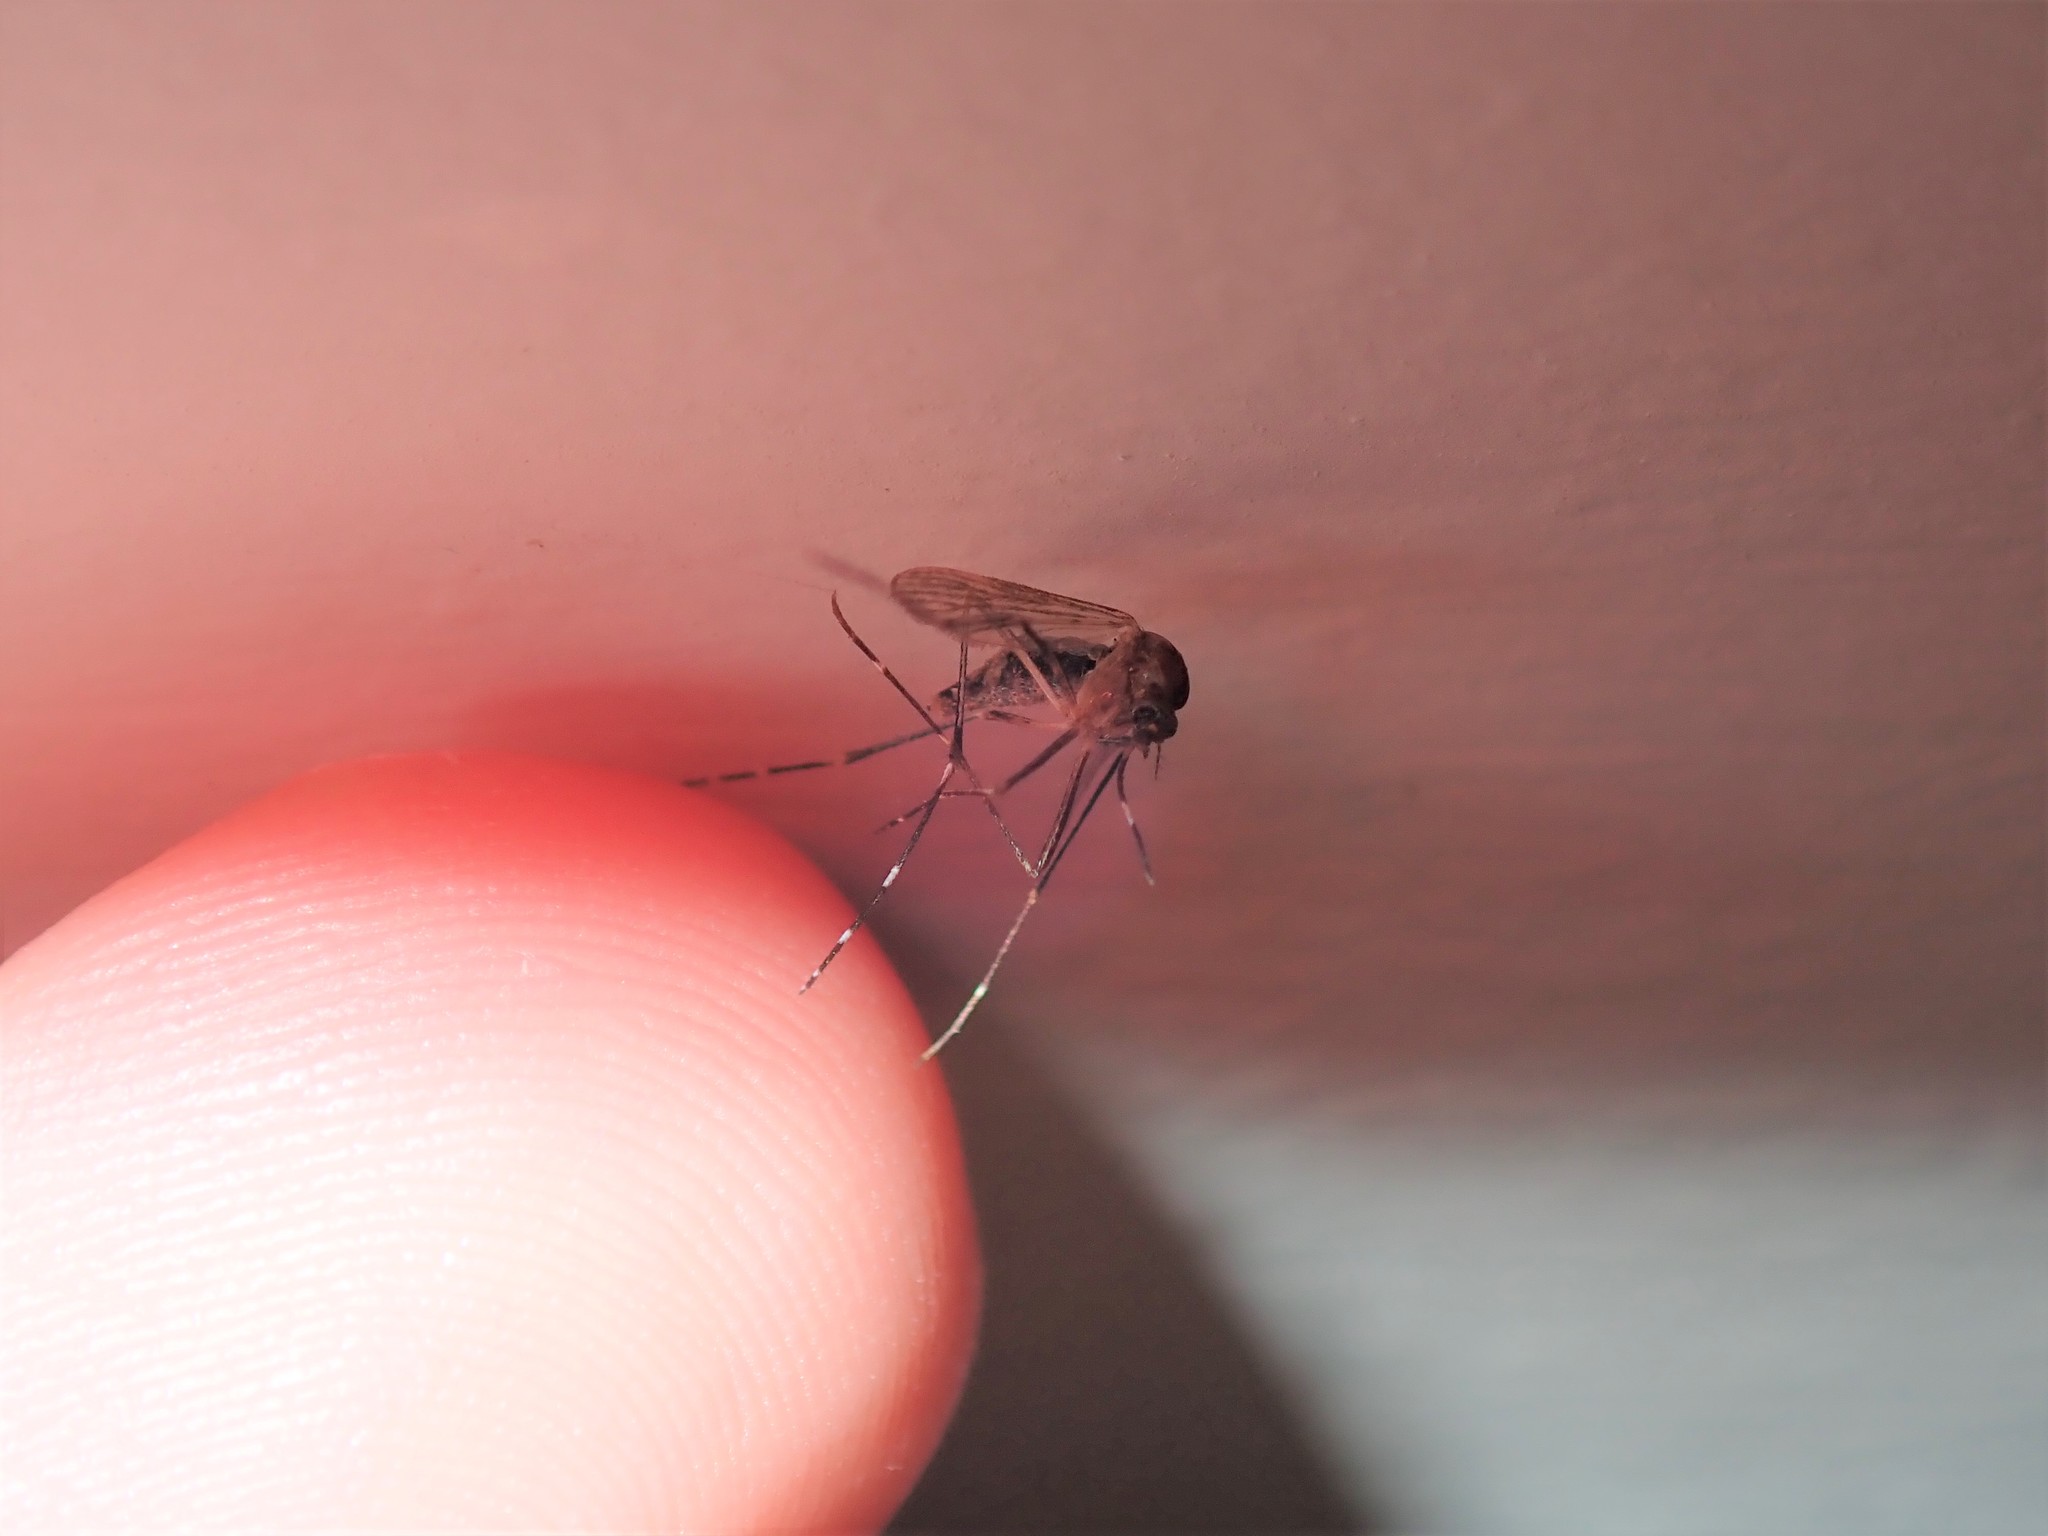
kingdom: Animalia
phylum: Arthropoda
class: Insecta
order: Diptera
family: Culicidae
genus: Aedes
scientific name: Aedes notoscriptus
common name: Australian backyard mosquito
